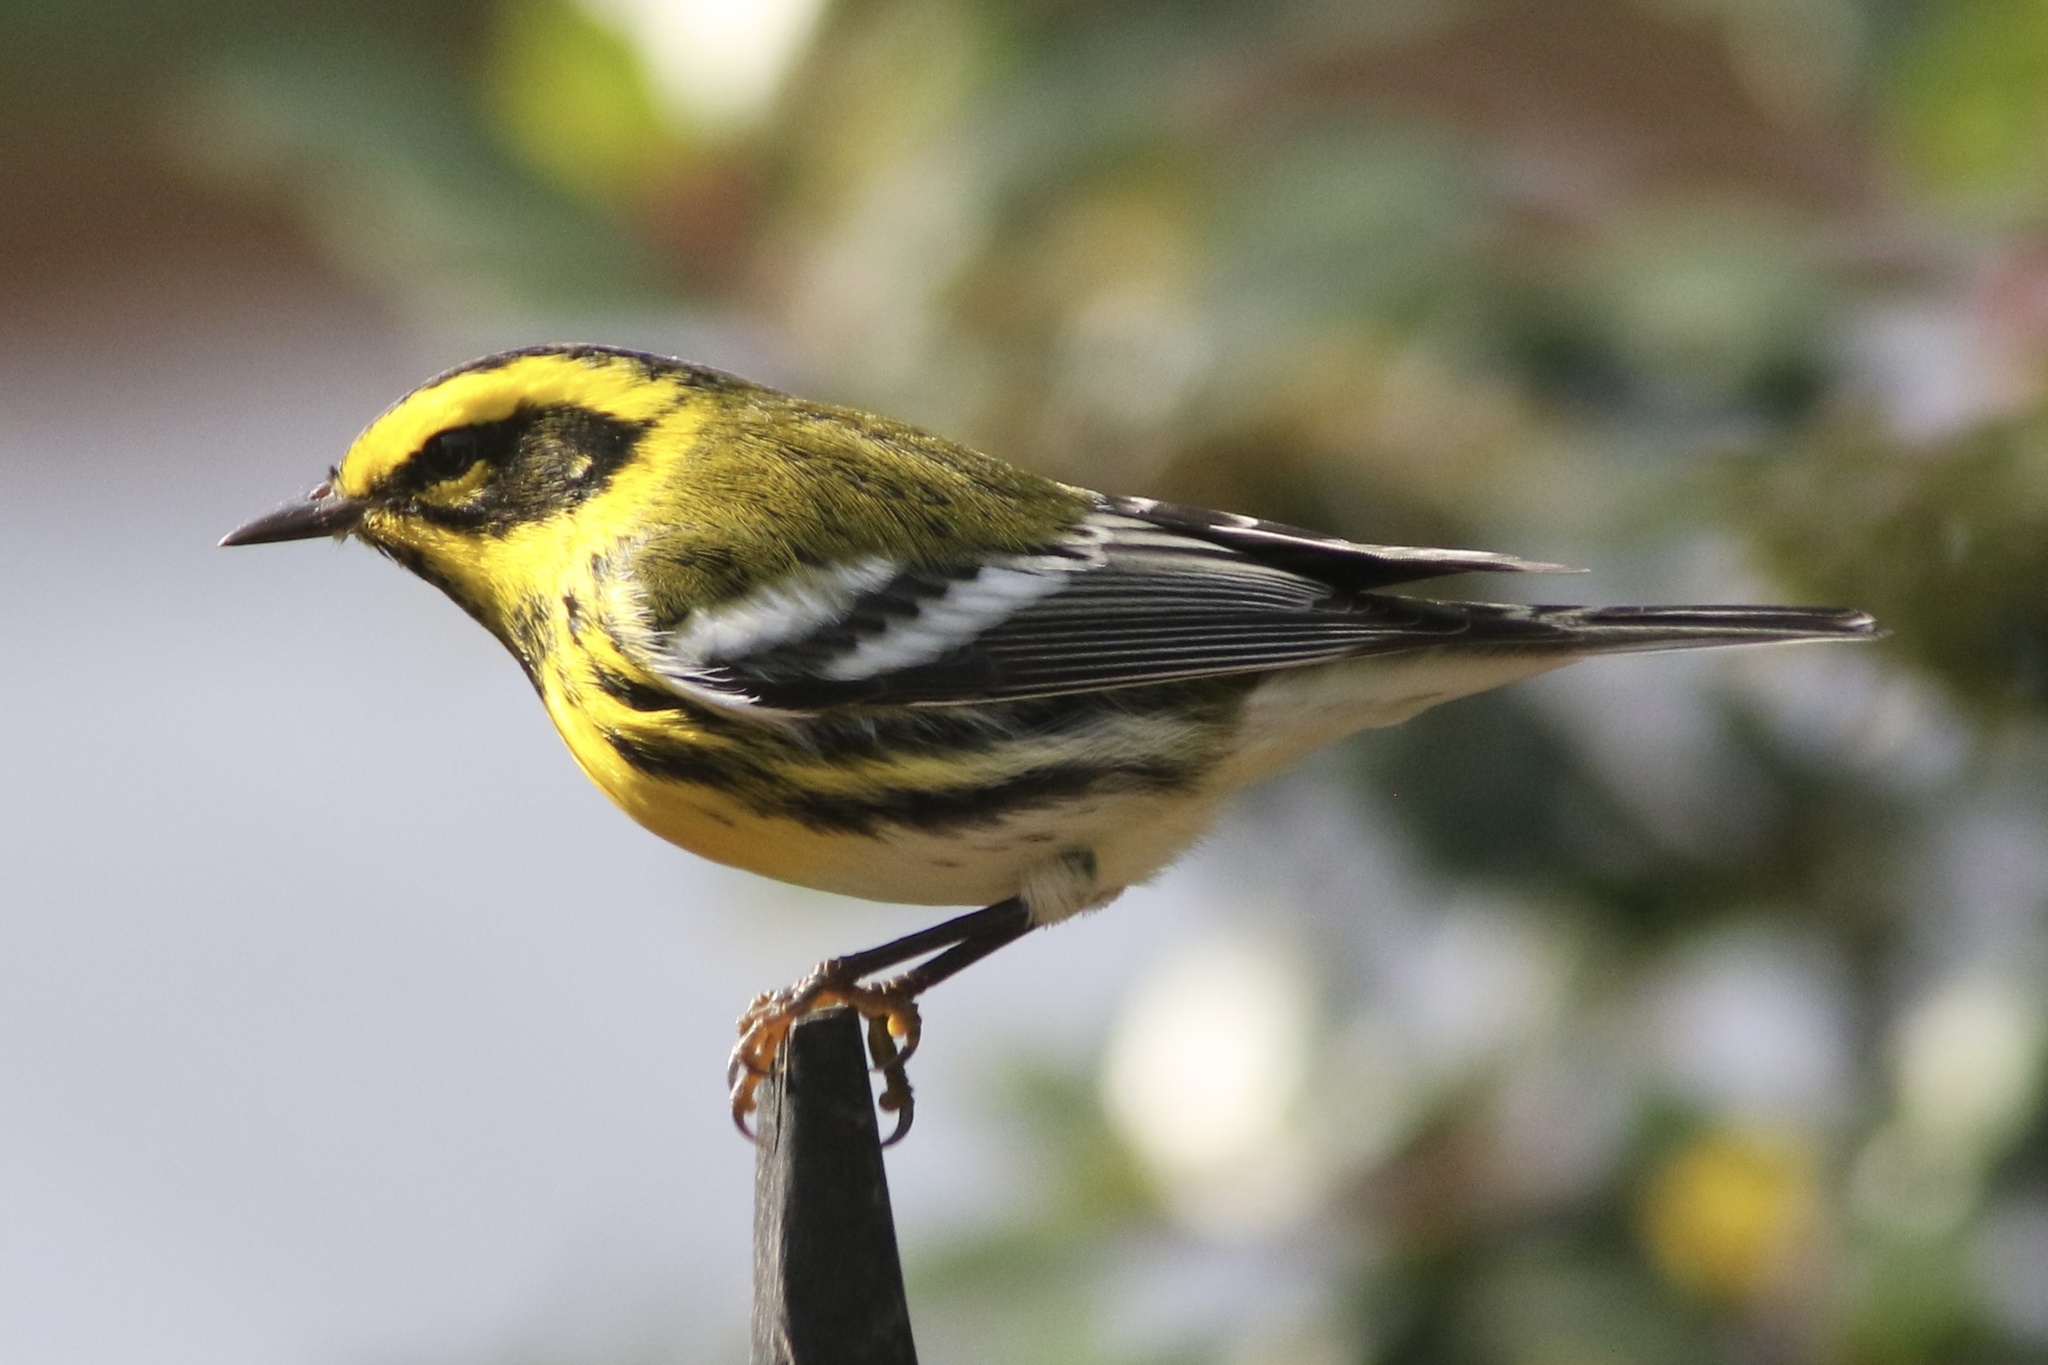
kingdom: Animalia
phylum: Chordata
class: Aves
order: Passeriformes
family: Parulidae
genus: Setophaga
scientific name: Setophaga townsendi
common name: Townsend's warbler
